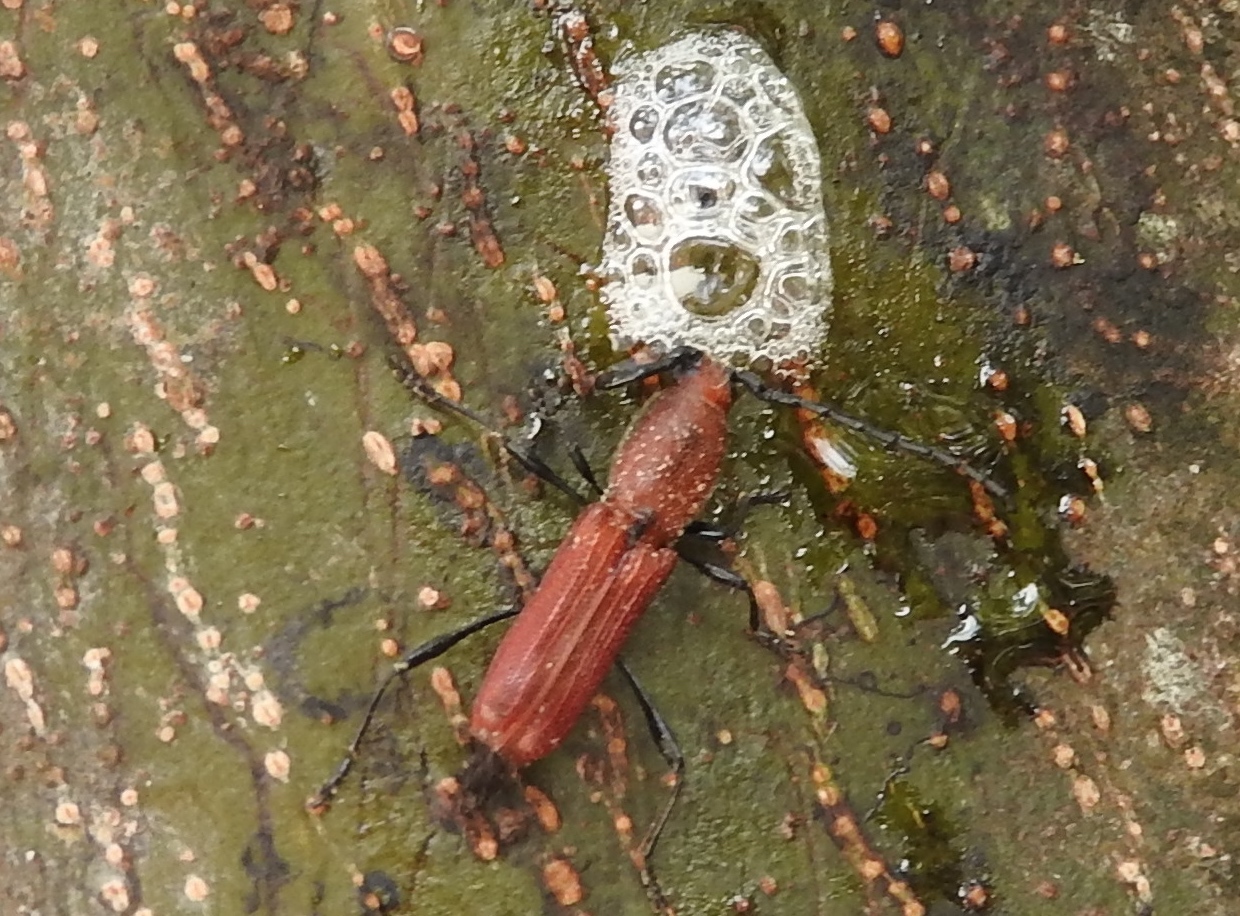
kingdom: Animalia
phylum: Arthropoda
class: Insecta
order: Coleoptera
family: Cerambycidae
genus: Assycuera
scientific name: Assycuera rubella
